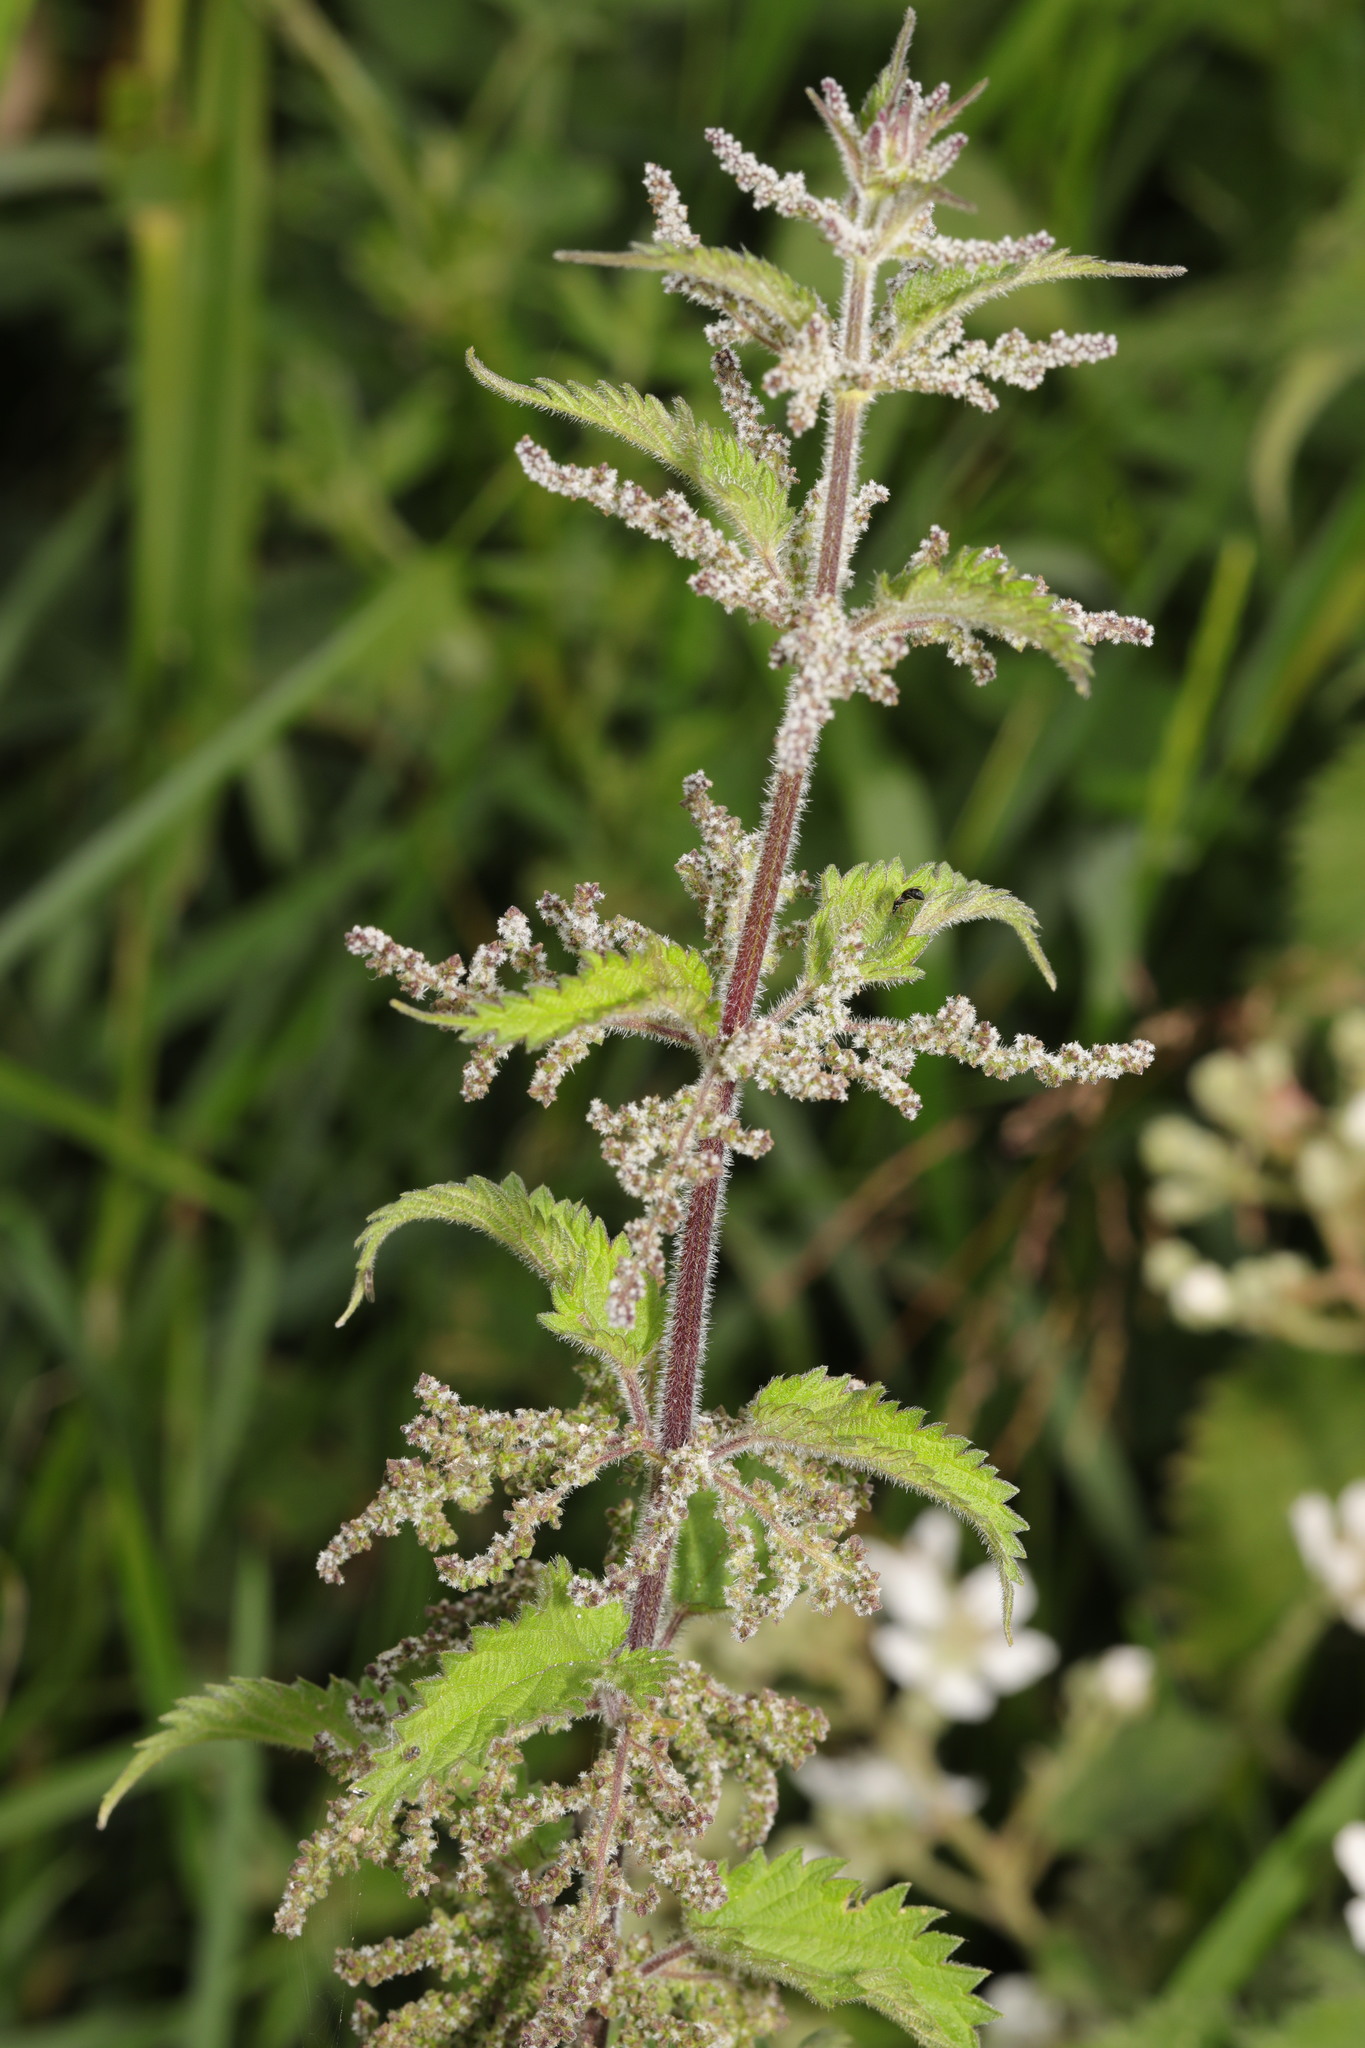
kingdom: Plantae
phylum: Tracheophyta
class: Magnoliopsida
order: Rosales
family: Urticaceae
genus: Urtica
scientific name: Urtica dioica
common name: Common nettle
